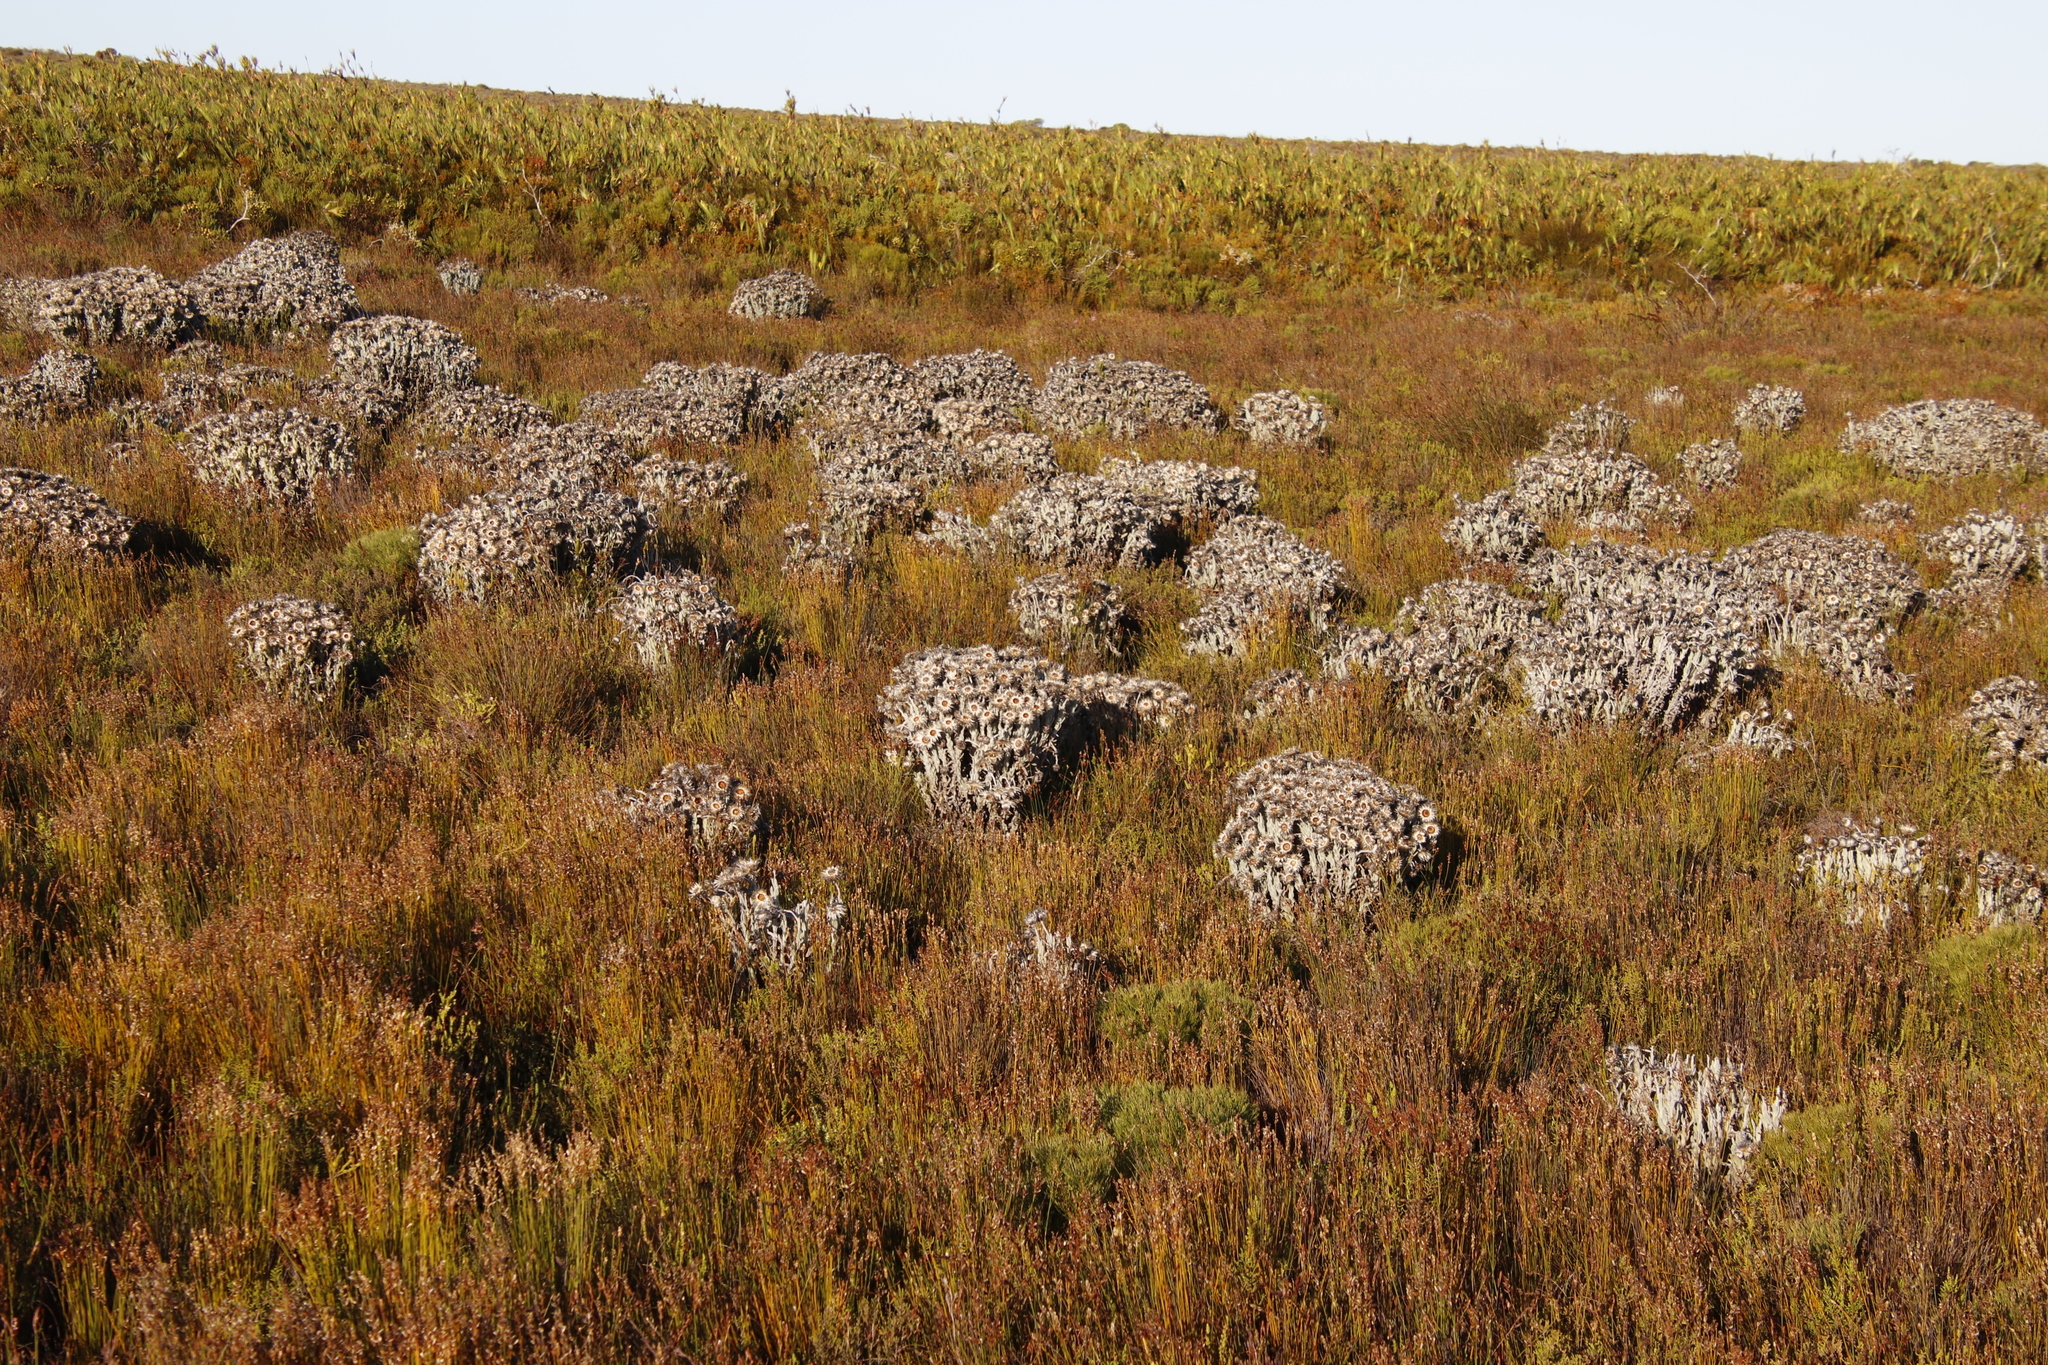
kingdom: Plantae
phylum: Tracheophyta
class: Magnoliopsida
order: Asterales
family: Asteraceae
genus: Syncarpha
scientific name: Syncarpha vestita
